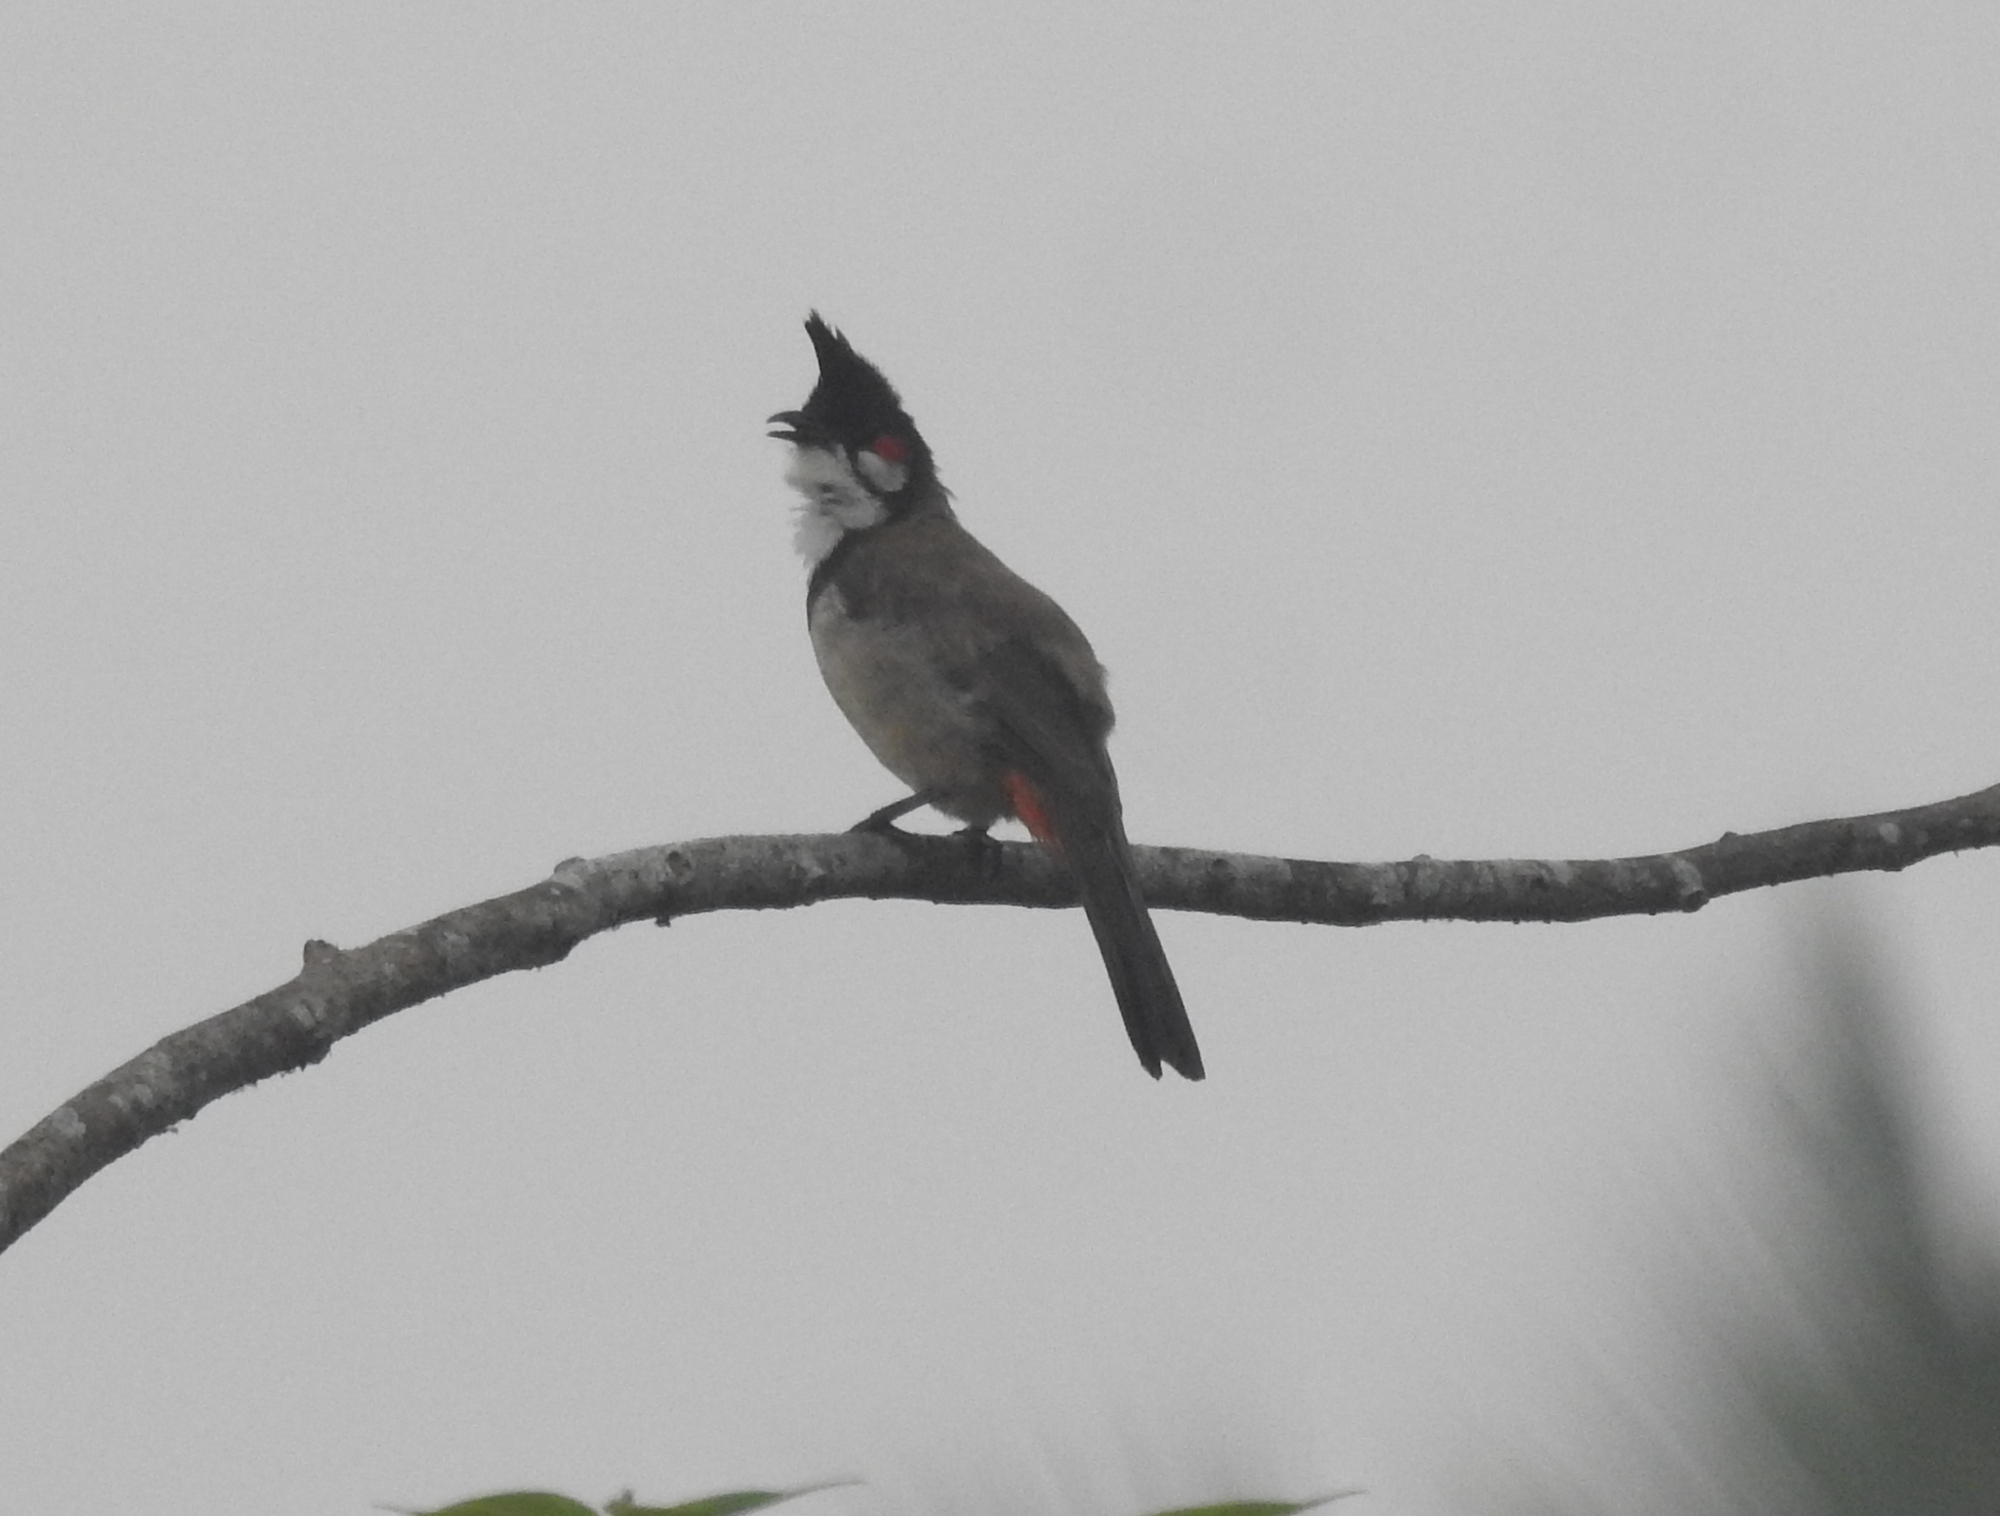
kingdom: Animalia
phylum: Chordata
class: Aves
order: Passeriformes
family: Pycnonotidae
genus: Pycnonotus
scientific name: Pycnonotus jocosus
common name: Red-whiskered bulbul
